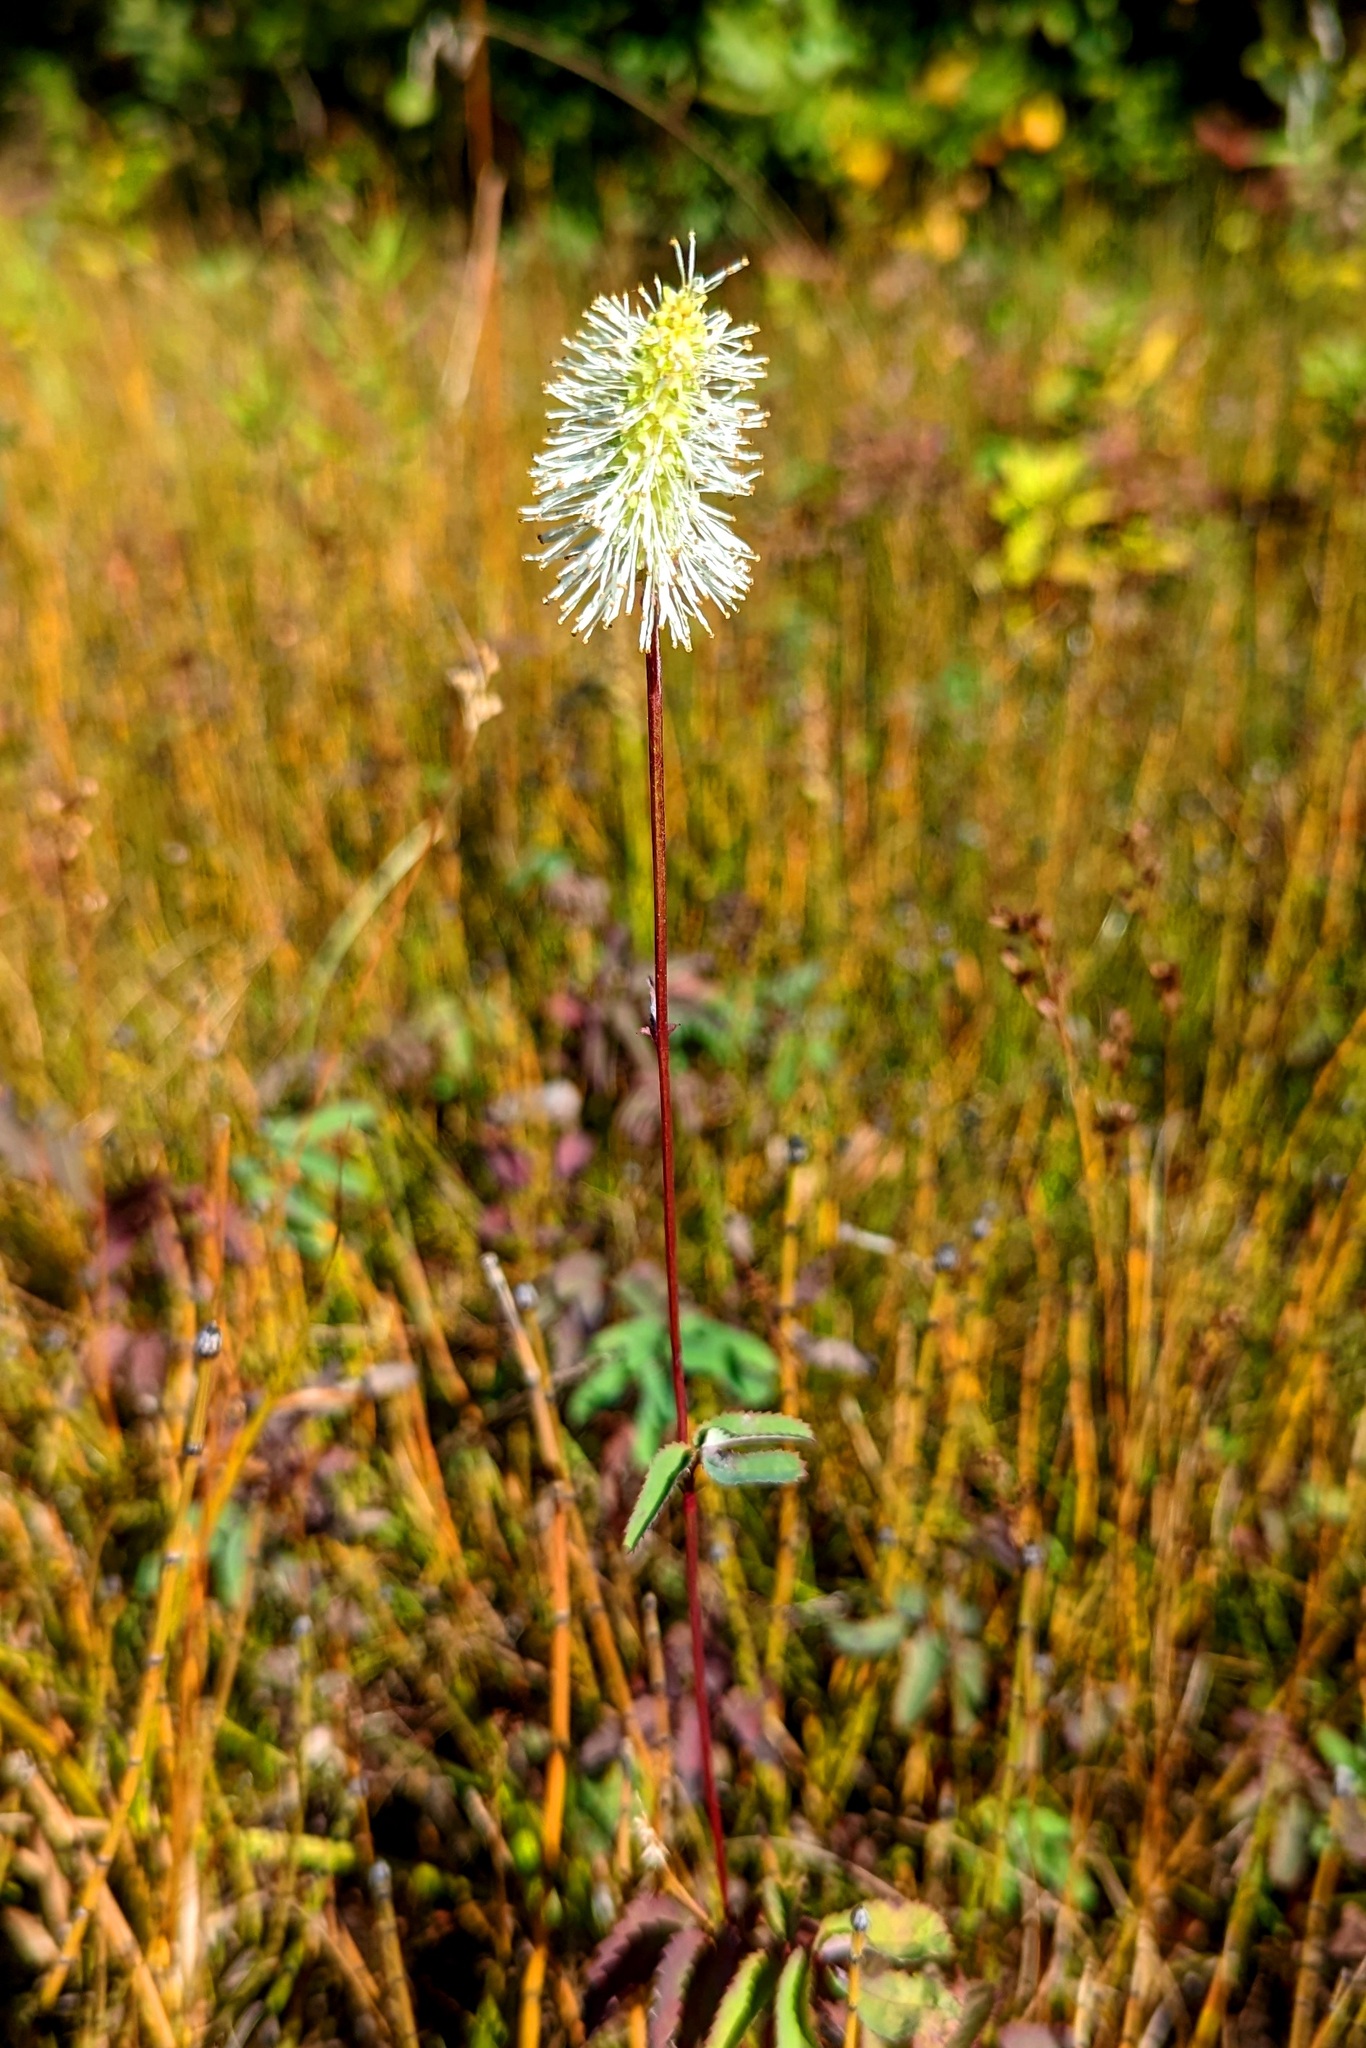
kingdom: Plantae
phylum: Tracheophyta
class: Magnoliopsida
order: Rosales
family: Rosaceae
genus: Sanguisorba
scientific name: Sanguisorba canadensis
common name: White burnet
